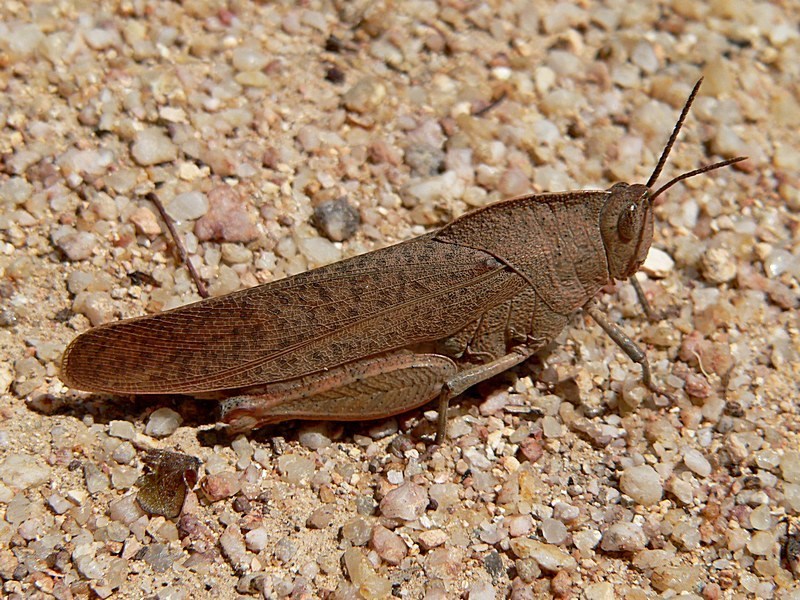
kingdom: Animalia
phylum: Arthropoda
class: Insecta
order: Orthoptera
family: Acrididae
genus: Goniaea
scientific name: Goniaea australasiae
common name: Gumleaf grasshopper
